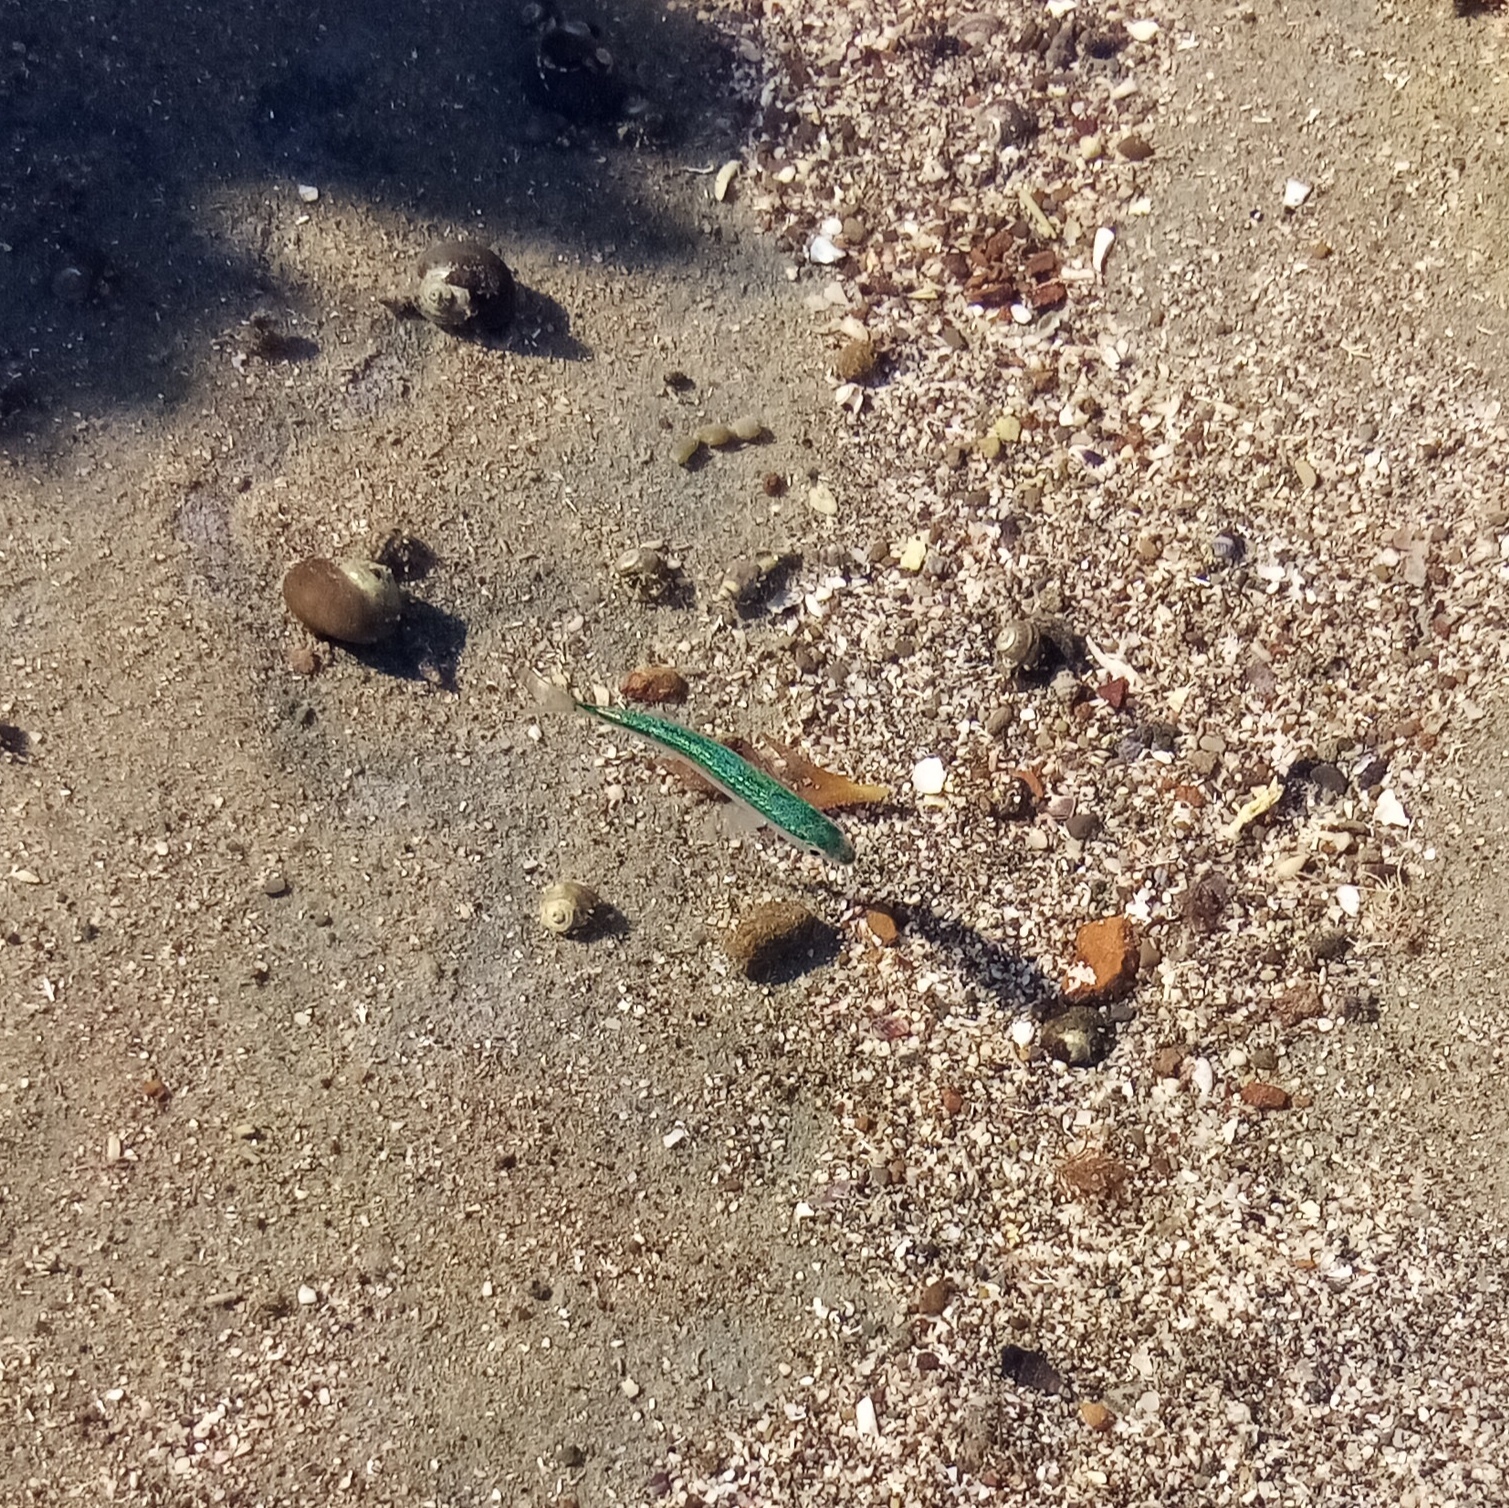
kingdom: Animalia
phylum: Chordata
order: Perciformes
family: Mullidae
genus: Upeneichthys
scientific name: Upeneichthys lineatus
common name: Red mullet
